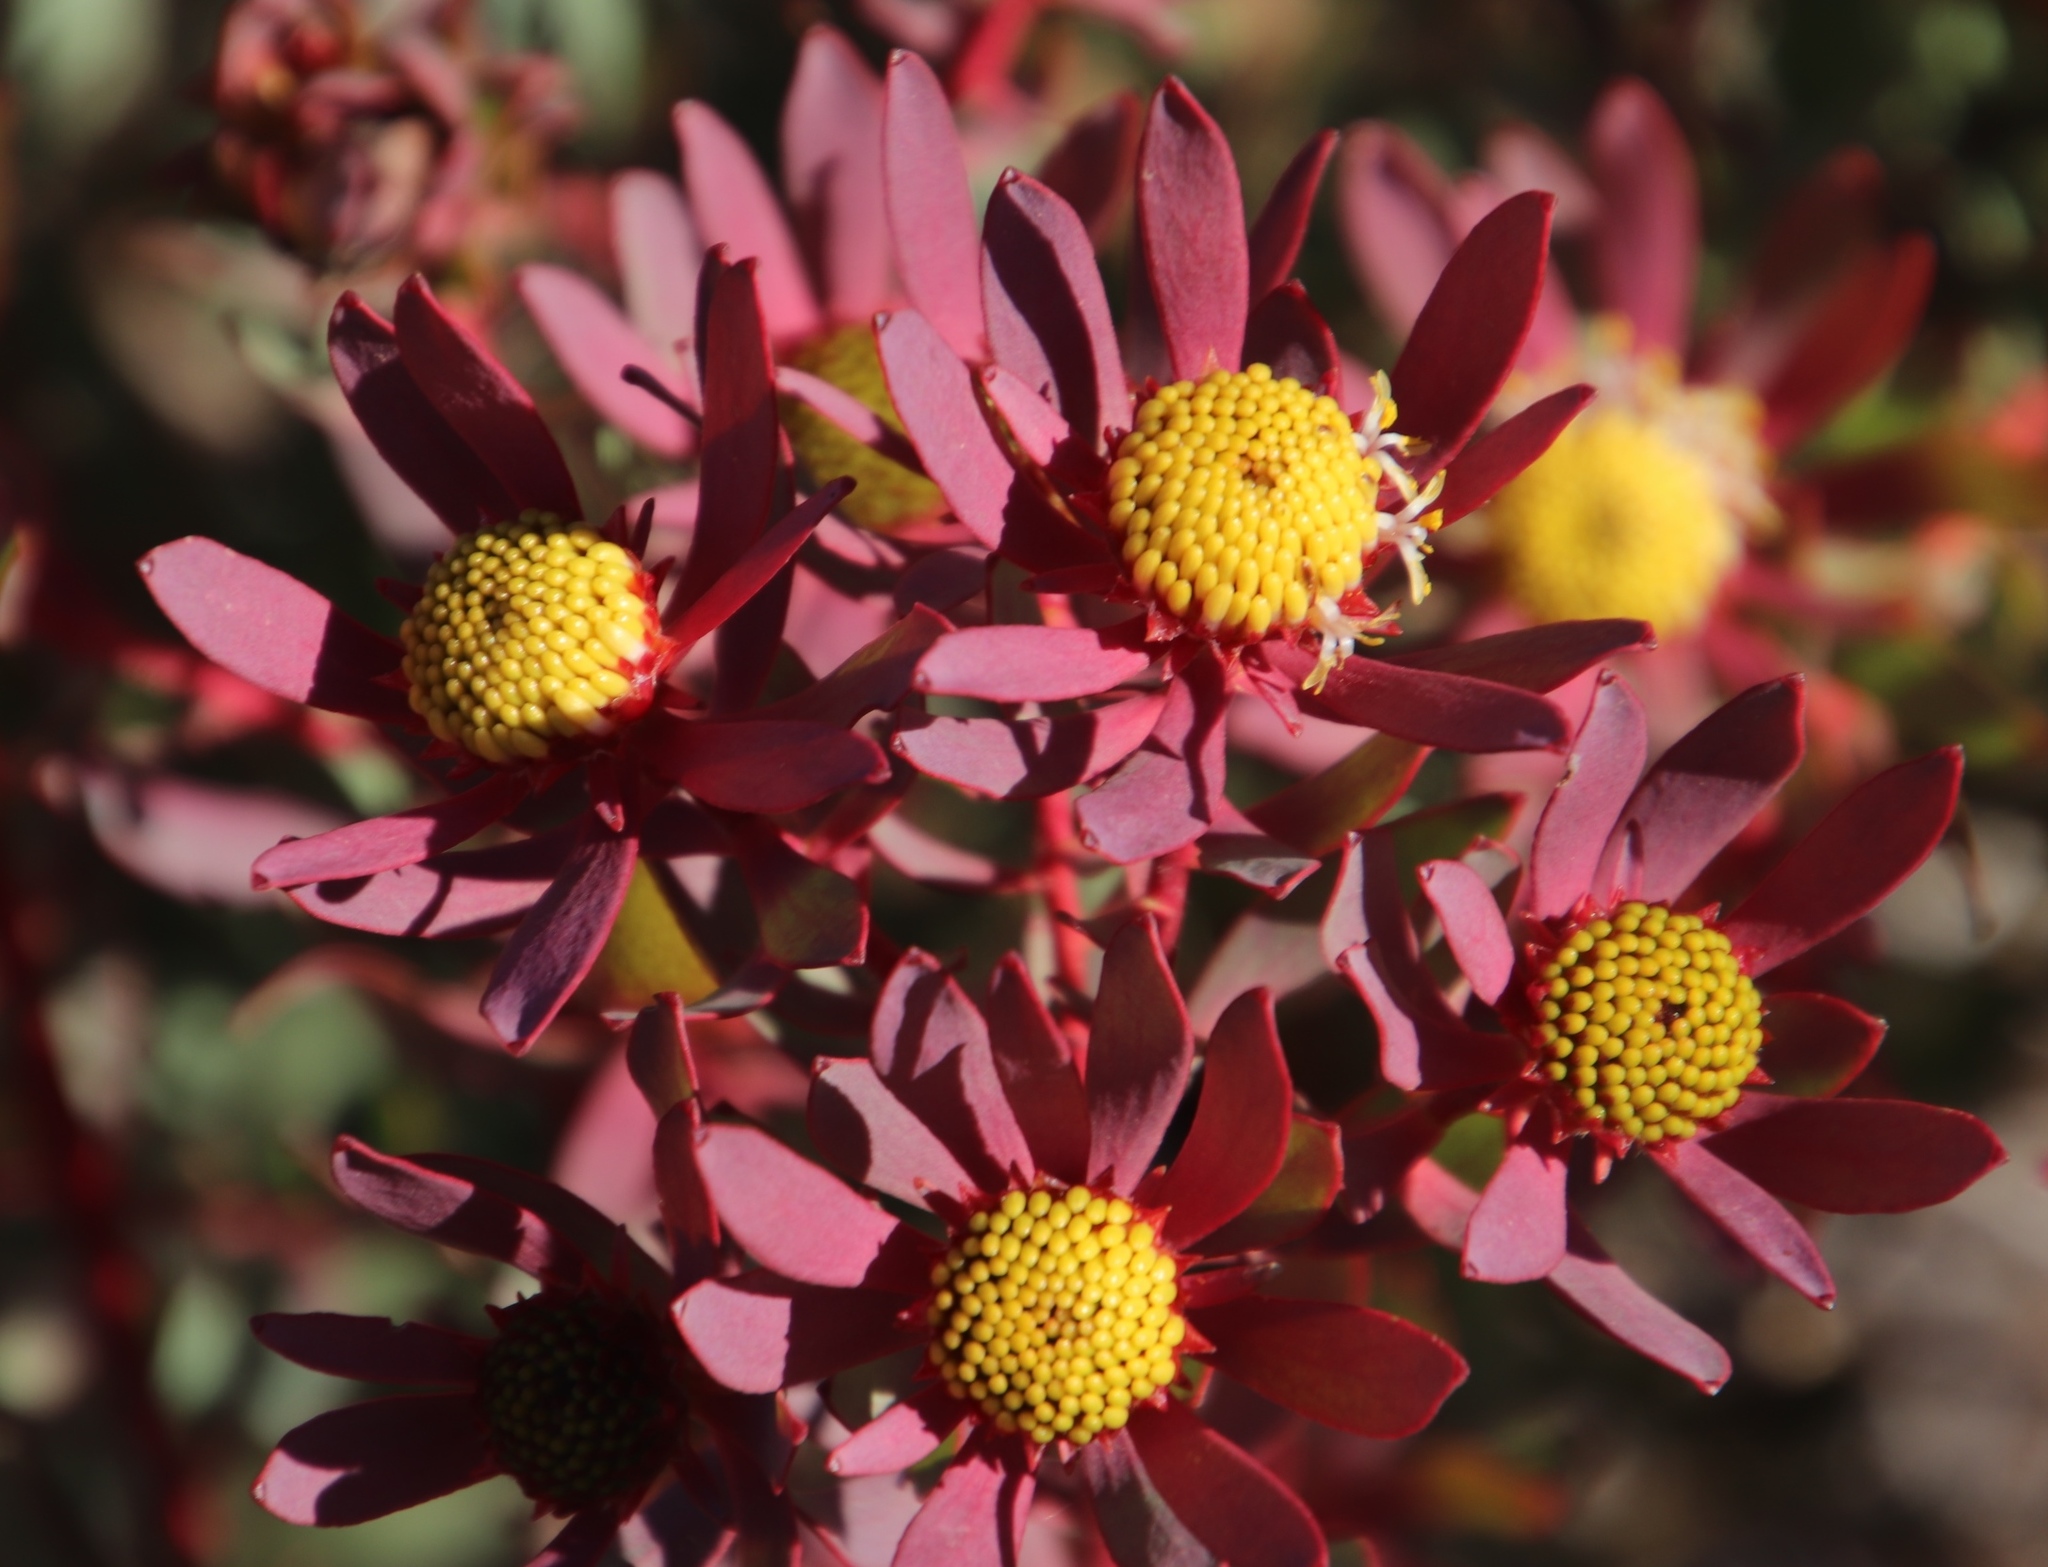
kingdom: Plantae
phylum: Tracheophyta
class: Magnoliopsida
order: Proteales
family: Proteaceae
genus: Leucadendron
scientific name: Leucadendron glaberrimum
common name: Common oily conebush
